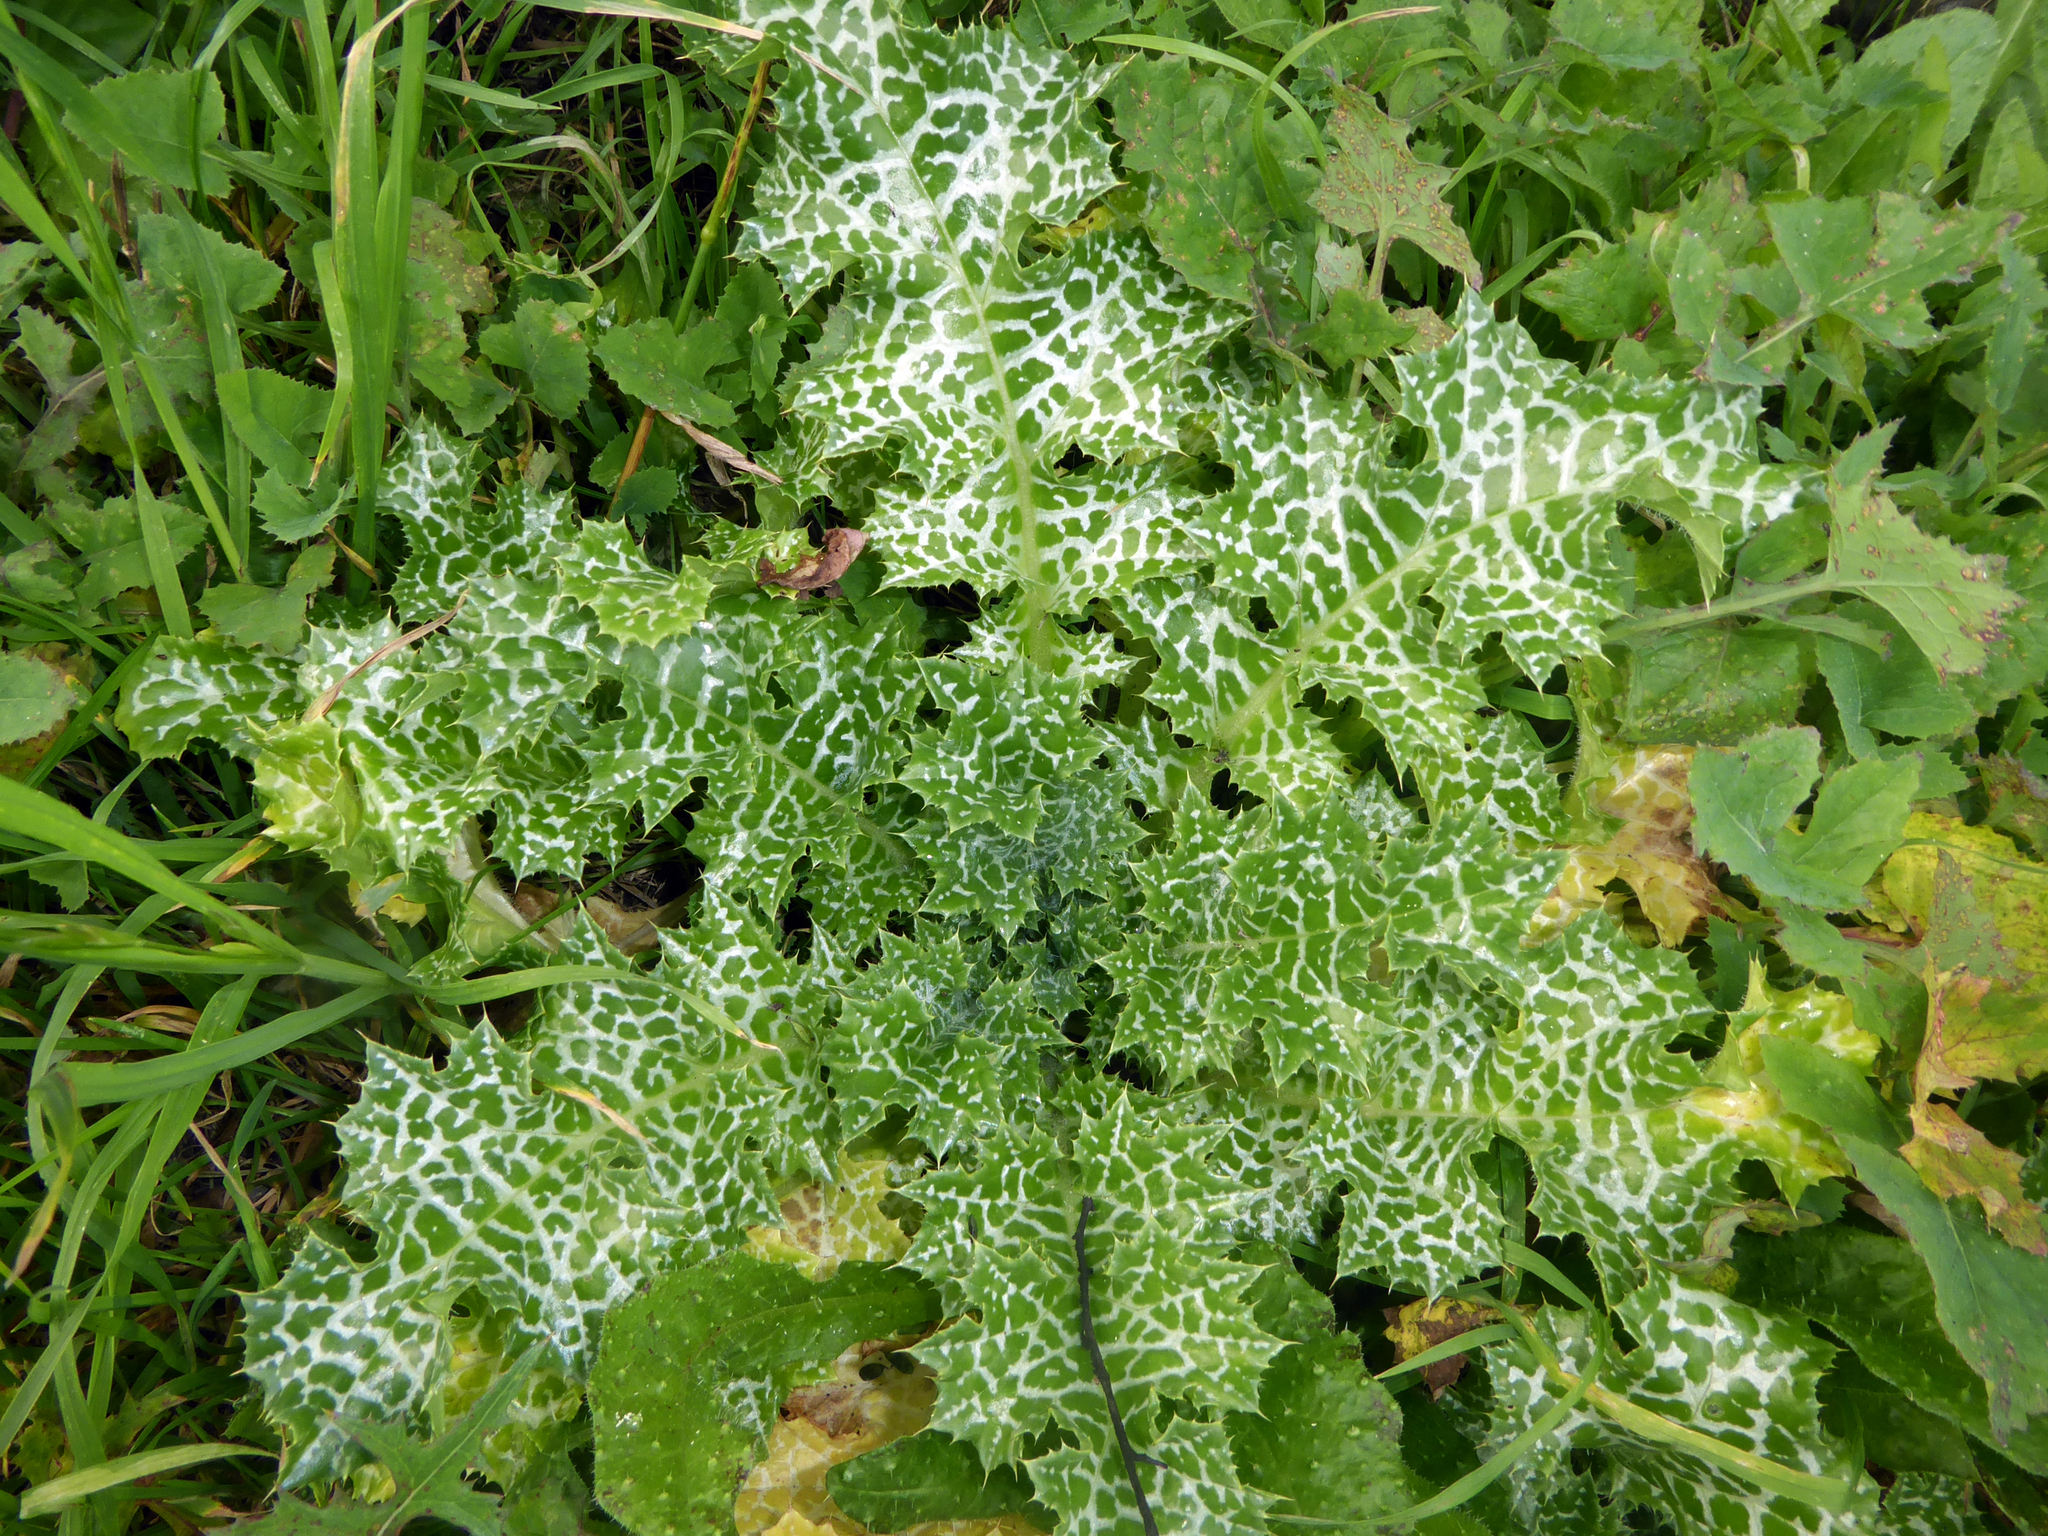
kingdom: Plantae
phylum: Tracheophyta
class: Magnoliopsida
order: Asterales
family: Asteraceae
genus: Silybum
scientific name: Silybum marianum
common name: Milk thistle
